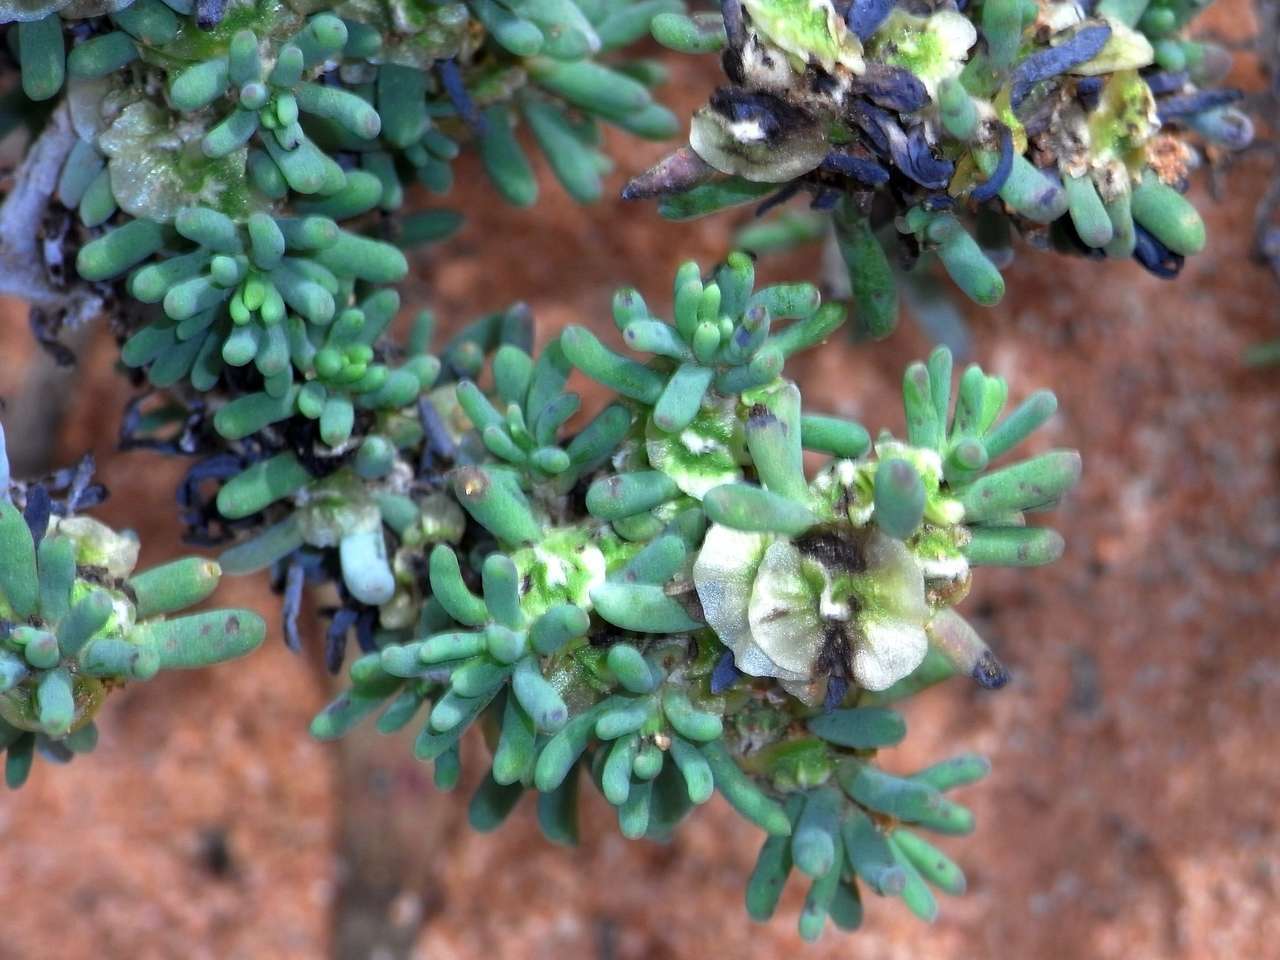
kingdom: Plantae
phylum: Tracheophyta
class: Magnoliopsida
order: Caryophyllales
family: Amaranthaceae
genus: Maireana
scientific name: Maireana pentatropis
